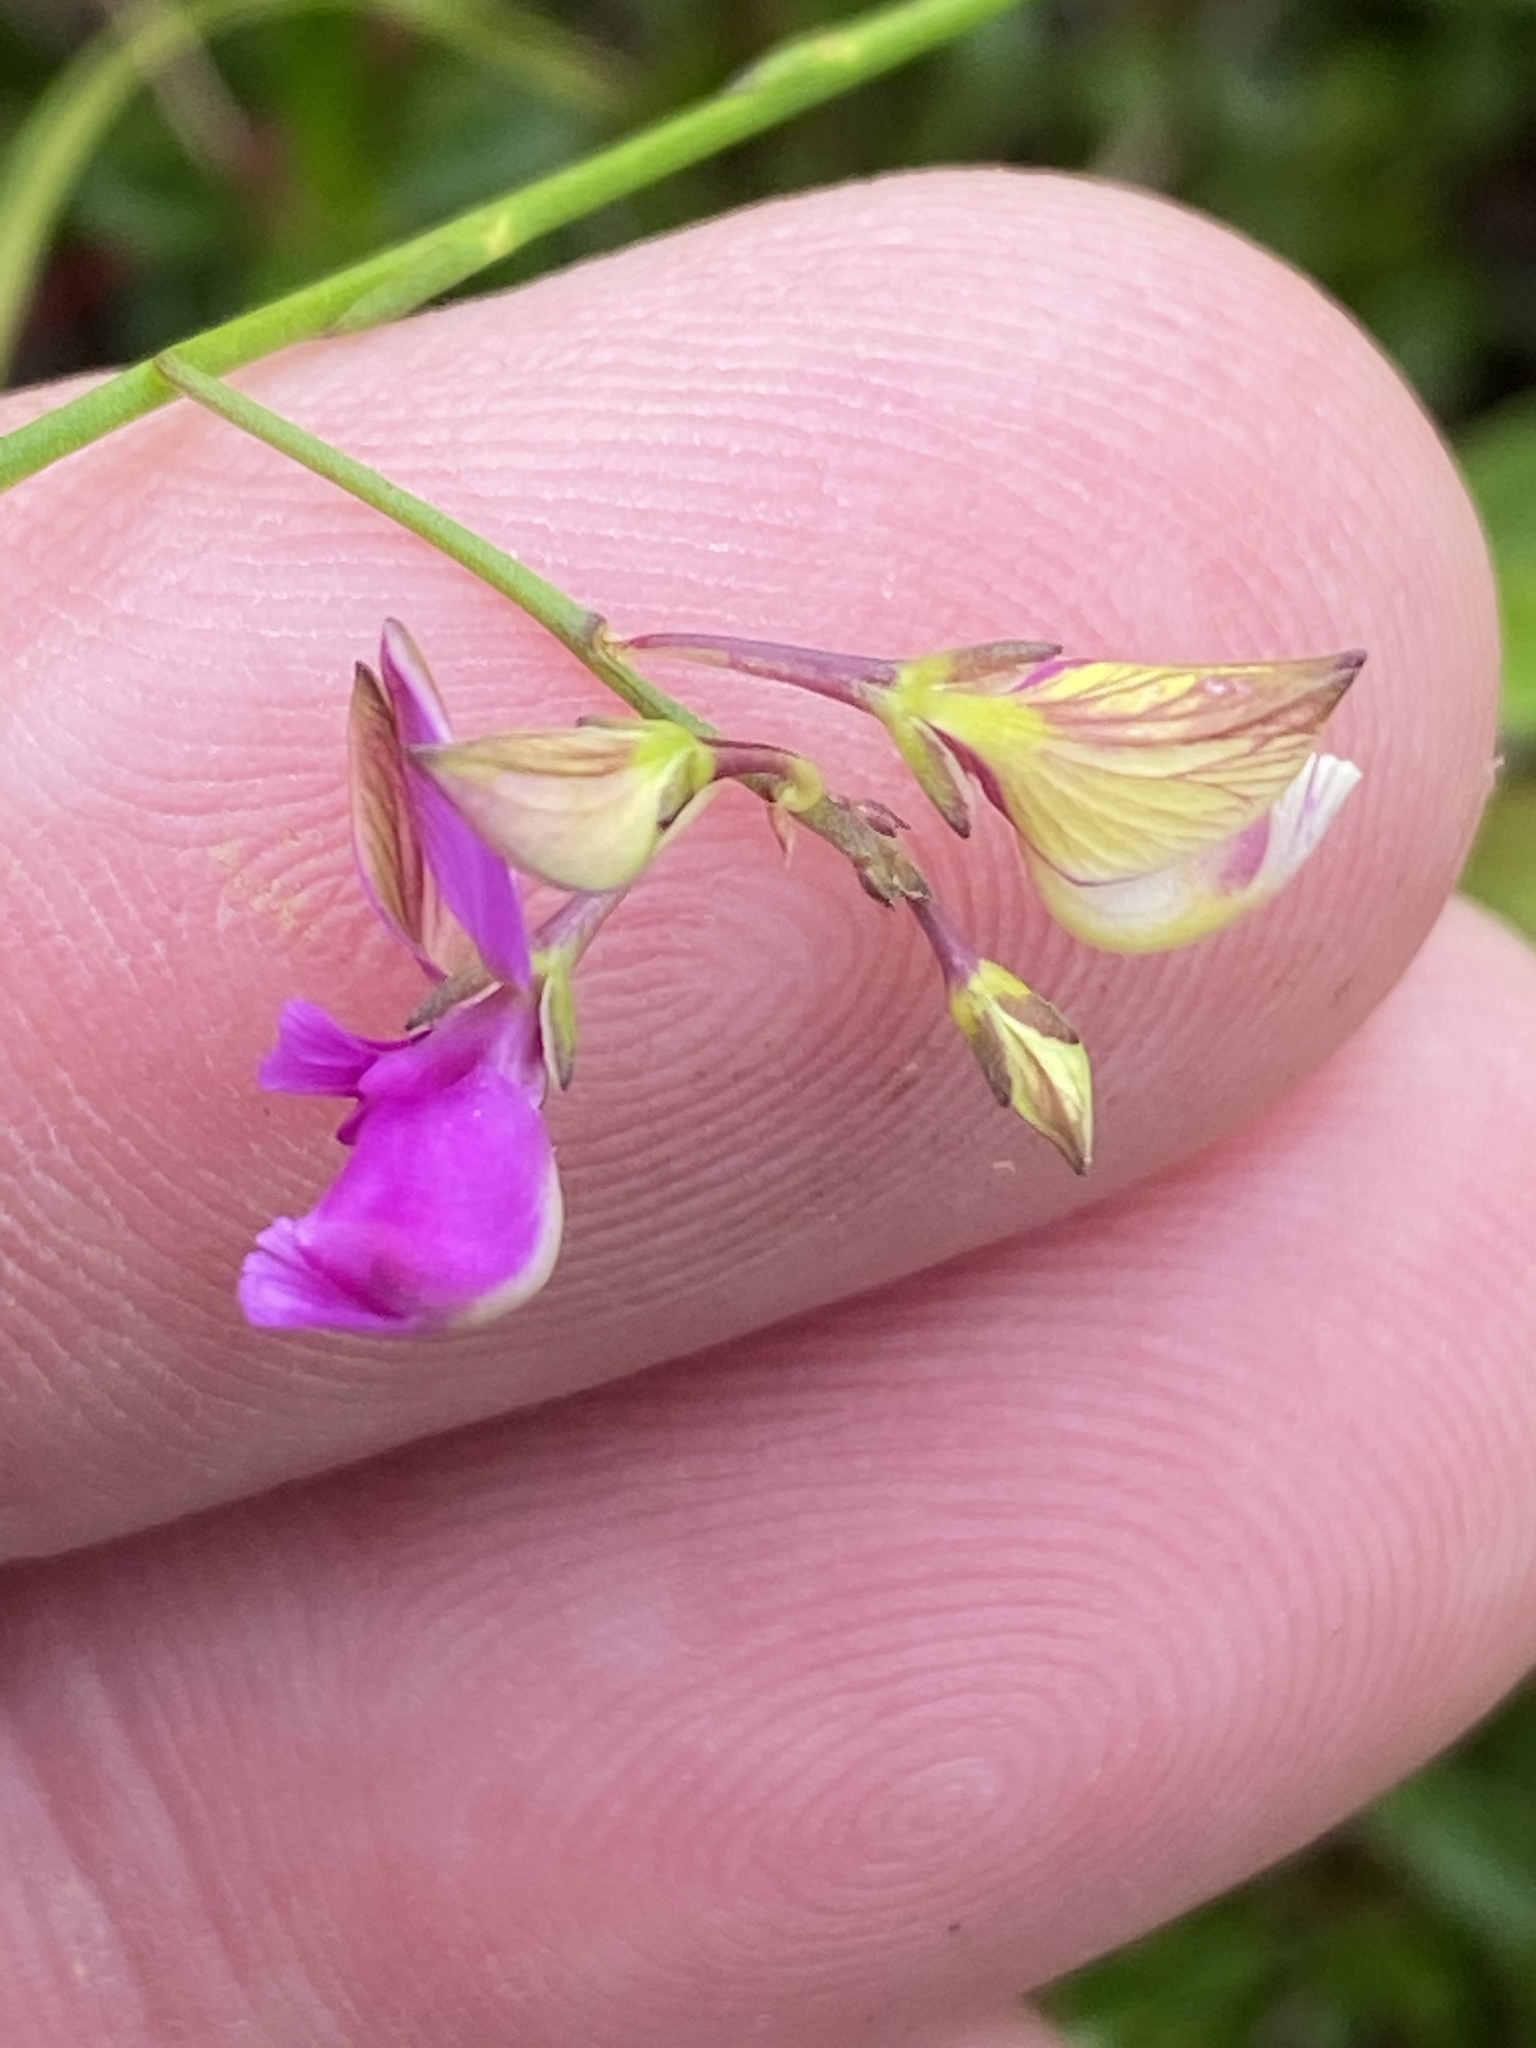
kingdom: Plantae
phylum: Tracheophyta
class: Magnoliopsida
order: Fabales
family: Polygalaceae
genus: Polygala
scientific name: Polygala refracta
